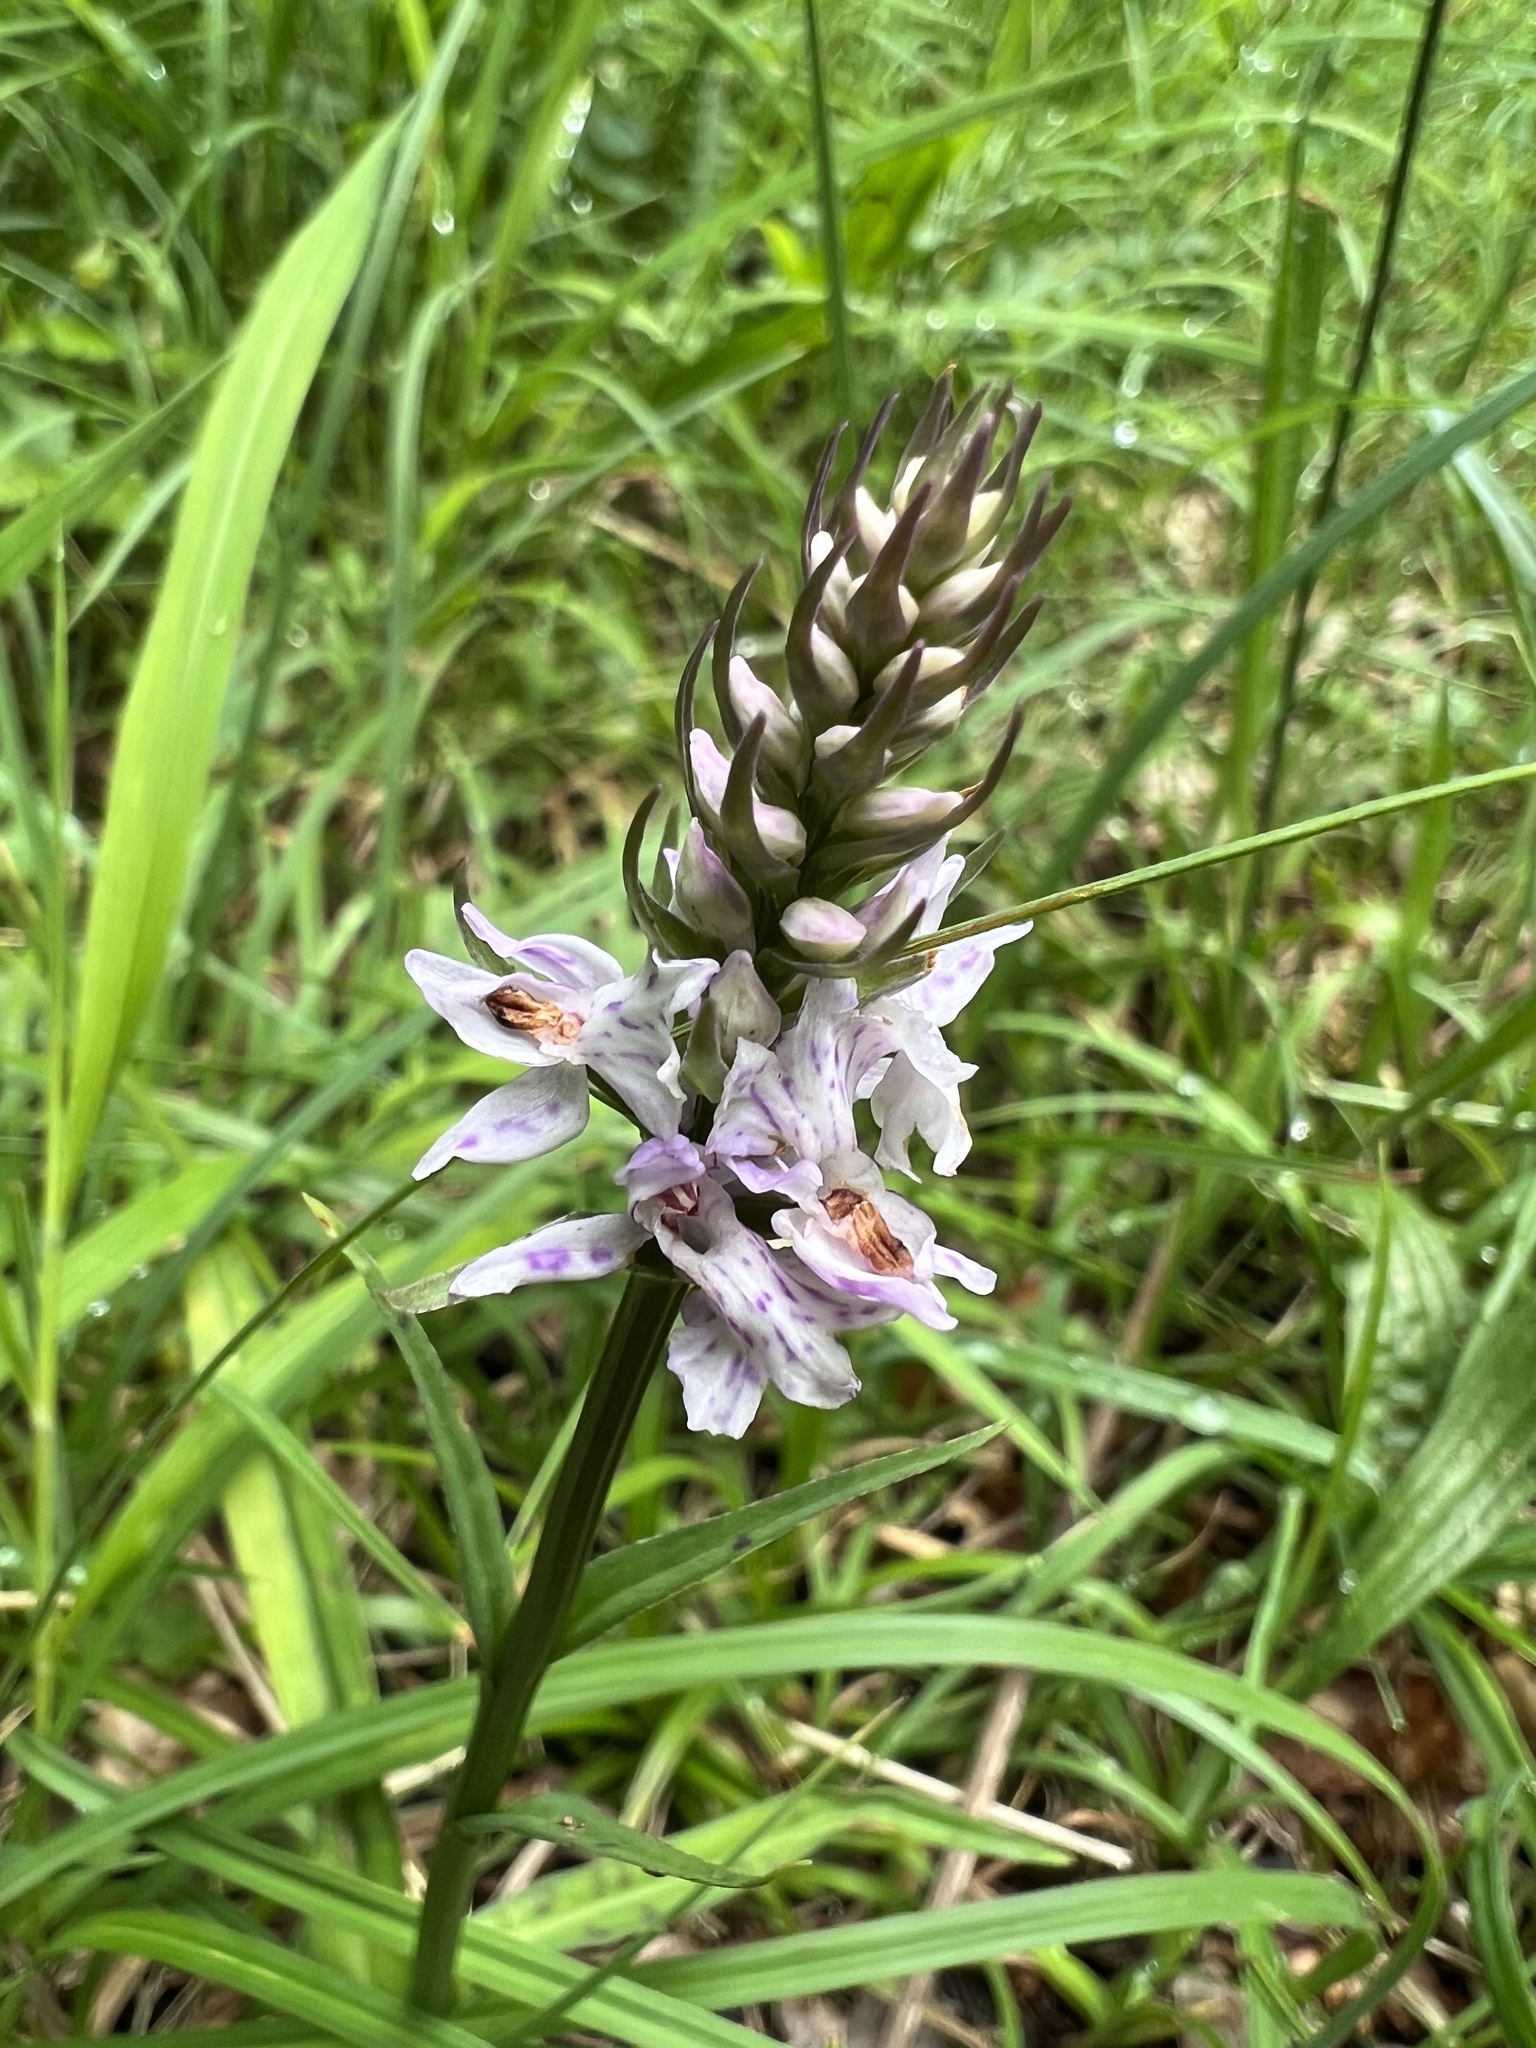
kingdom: Plantae
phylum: Tracheophyta
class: Liliopsida
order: Asparagales
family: Orchidaceae
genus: Dactylorhiza
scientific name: Dactylorhiza maculata
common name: Heath spotted-orchid
